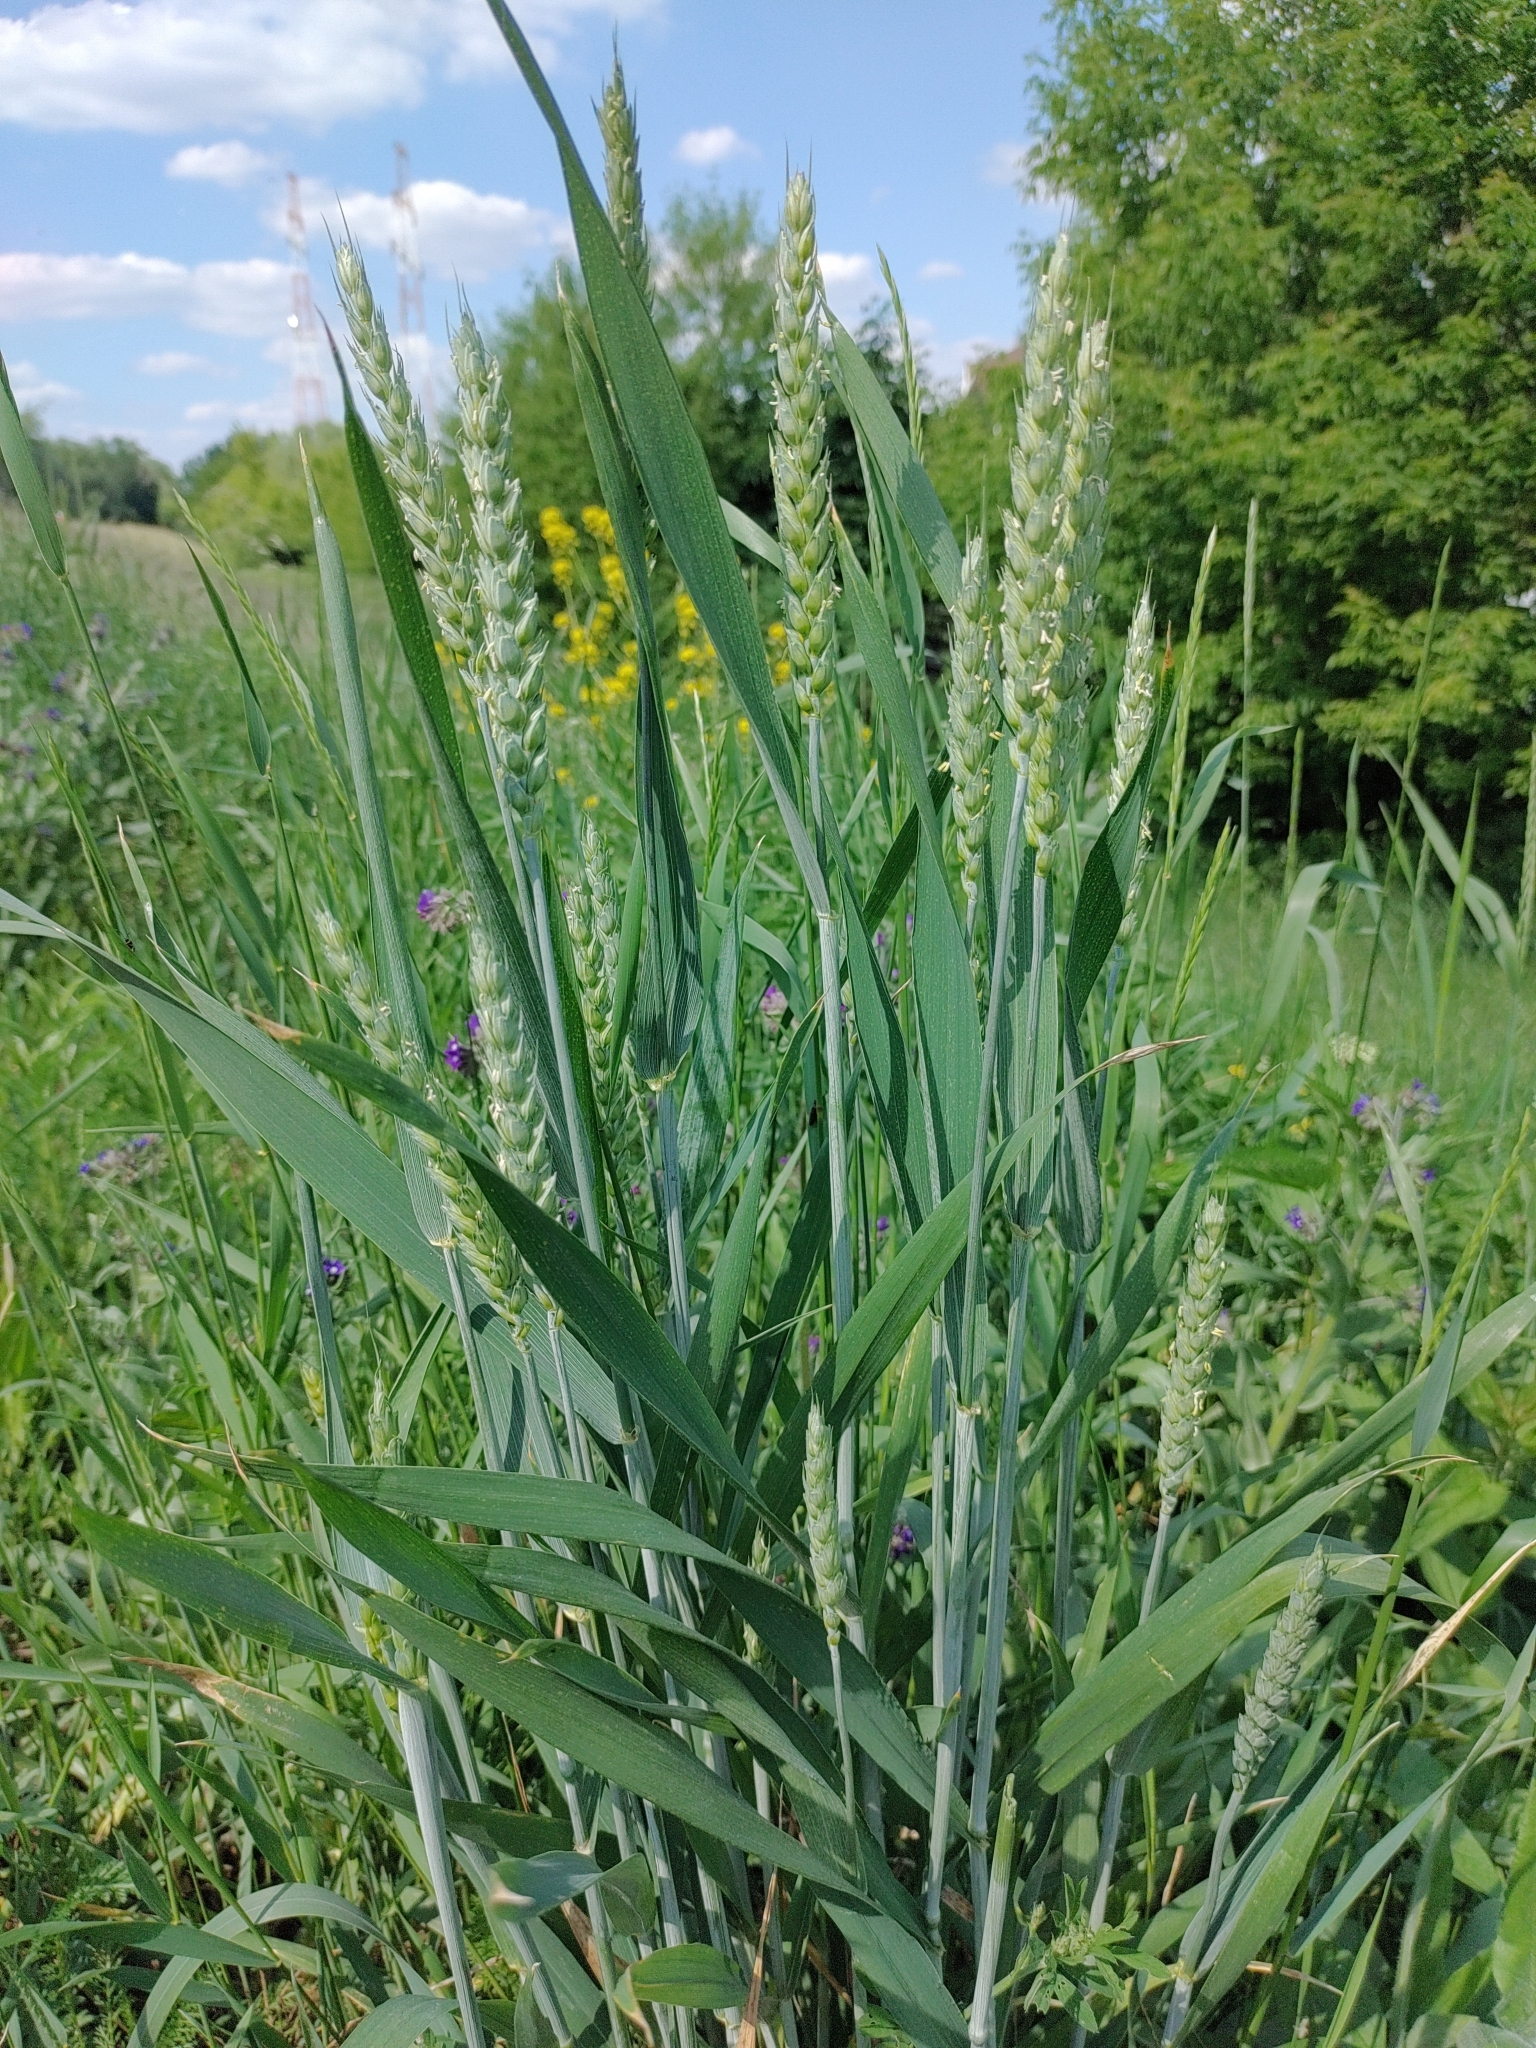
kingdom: Plantae
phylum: Tracheophyta
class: Liliopsida
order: Poales
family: Poaceae
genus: Triticum
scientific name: Triticum aestivum
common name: Common wheat
